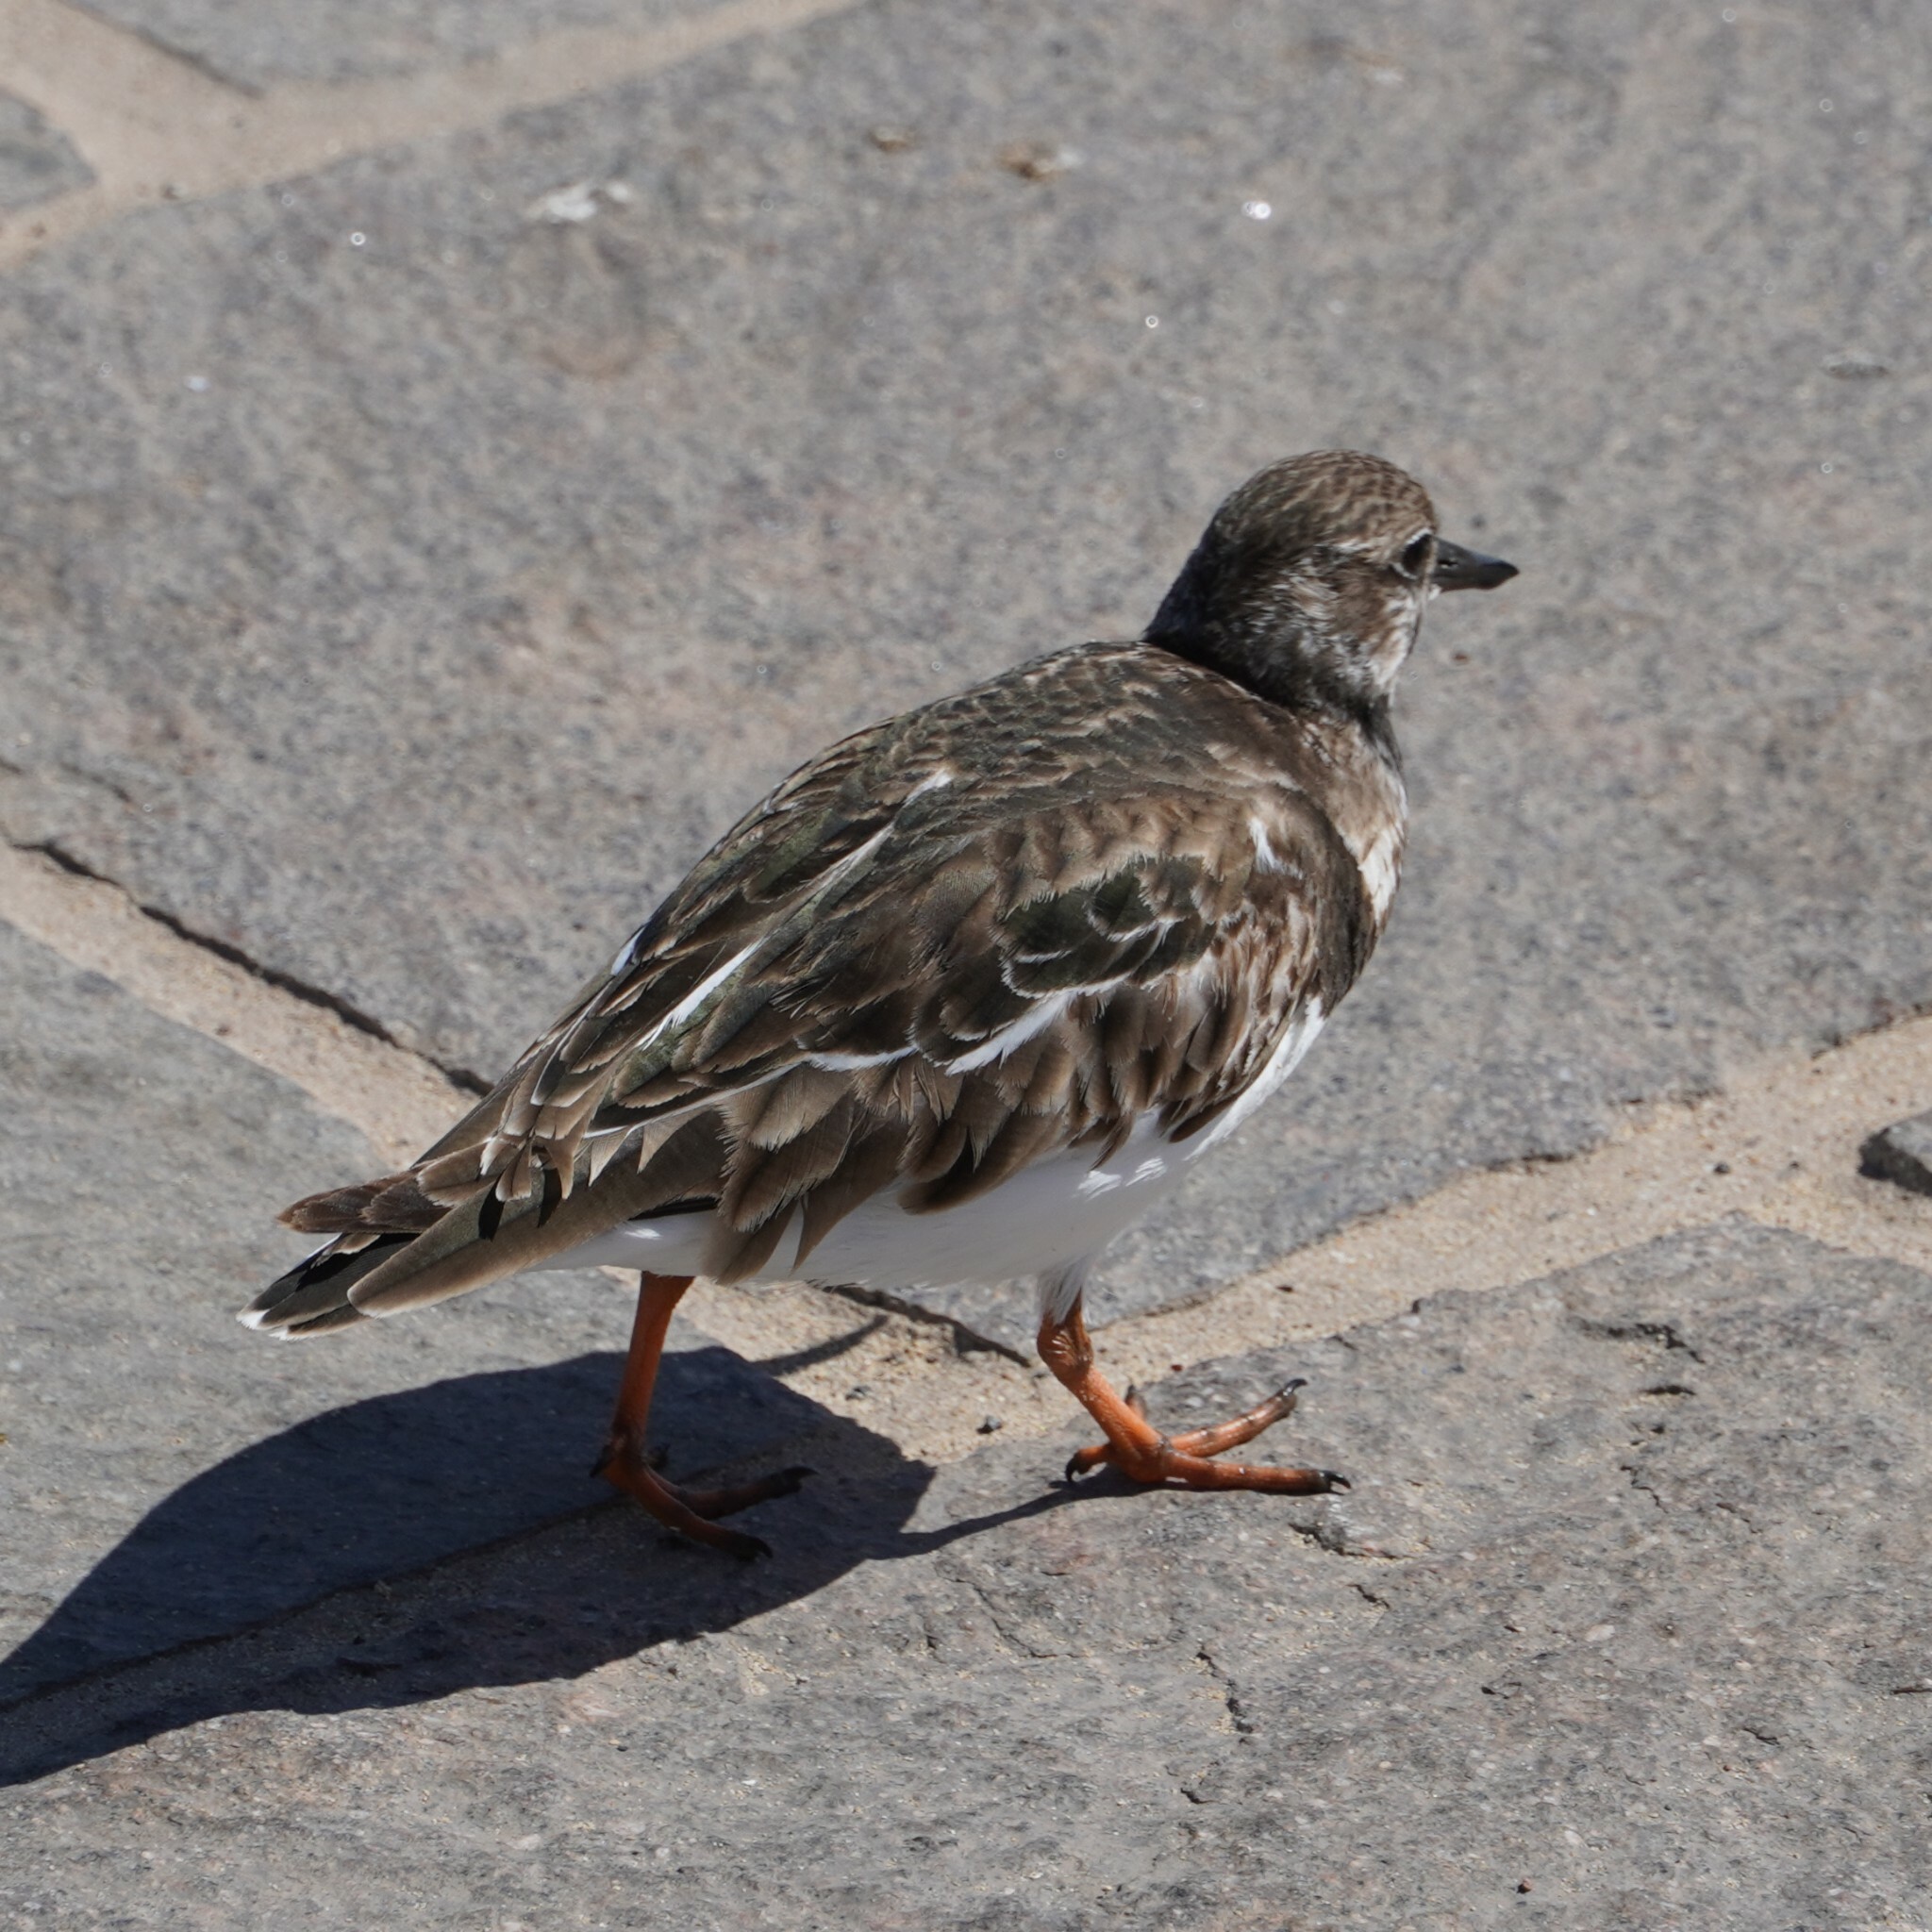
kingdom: Animalia
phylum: Chordata
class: Aves
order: Charadriiformes
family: Scolopacidae
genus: Arenaria
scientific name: Arenaria interpres
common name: Ruddy turnstone
